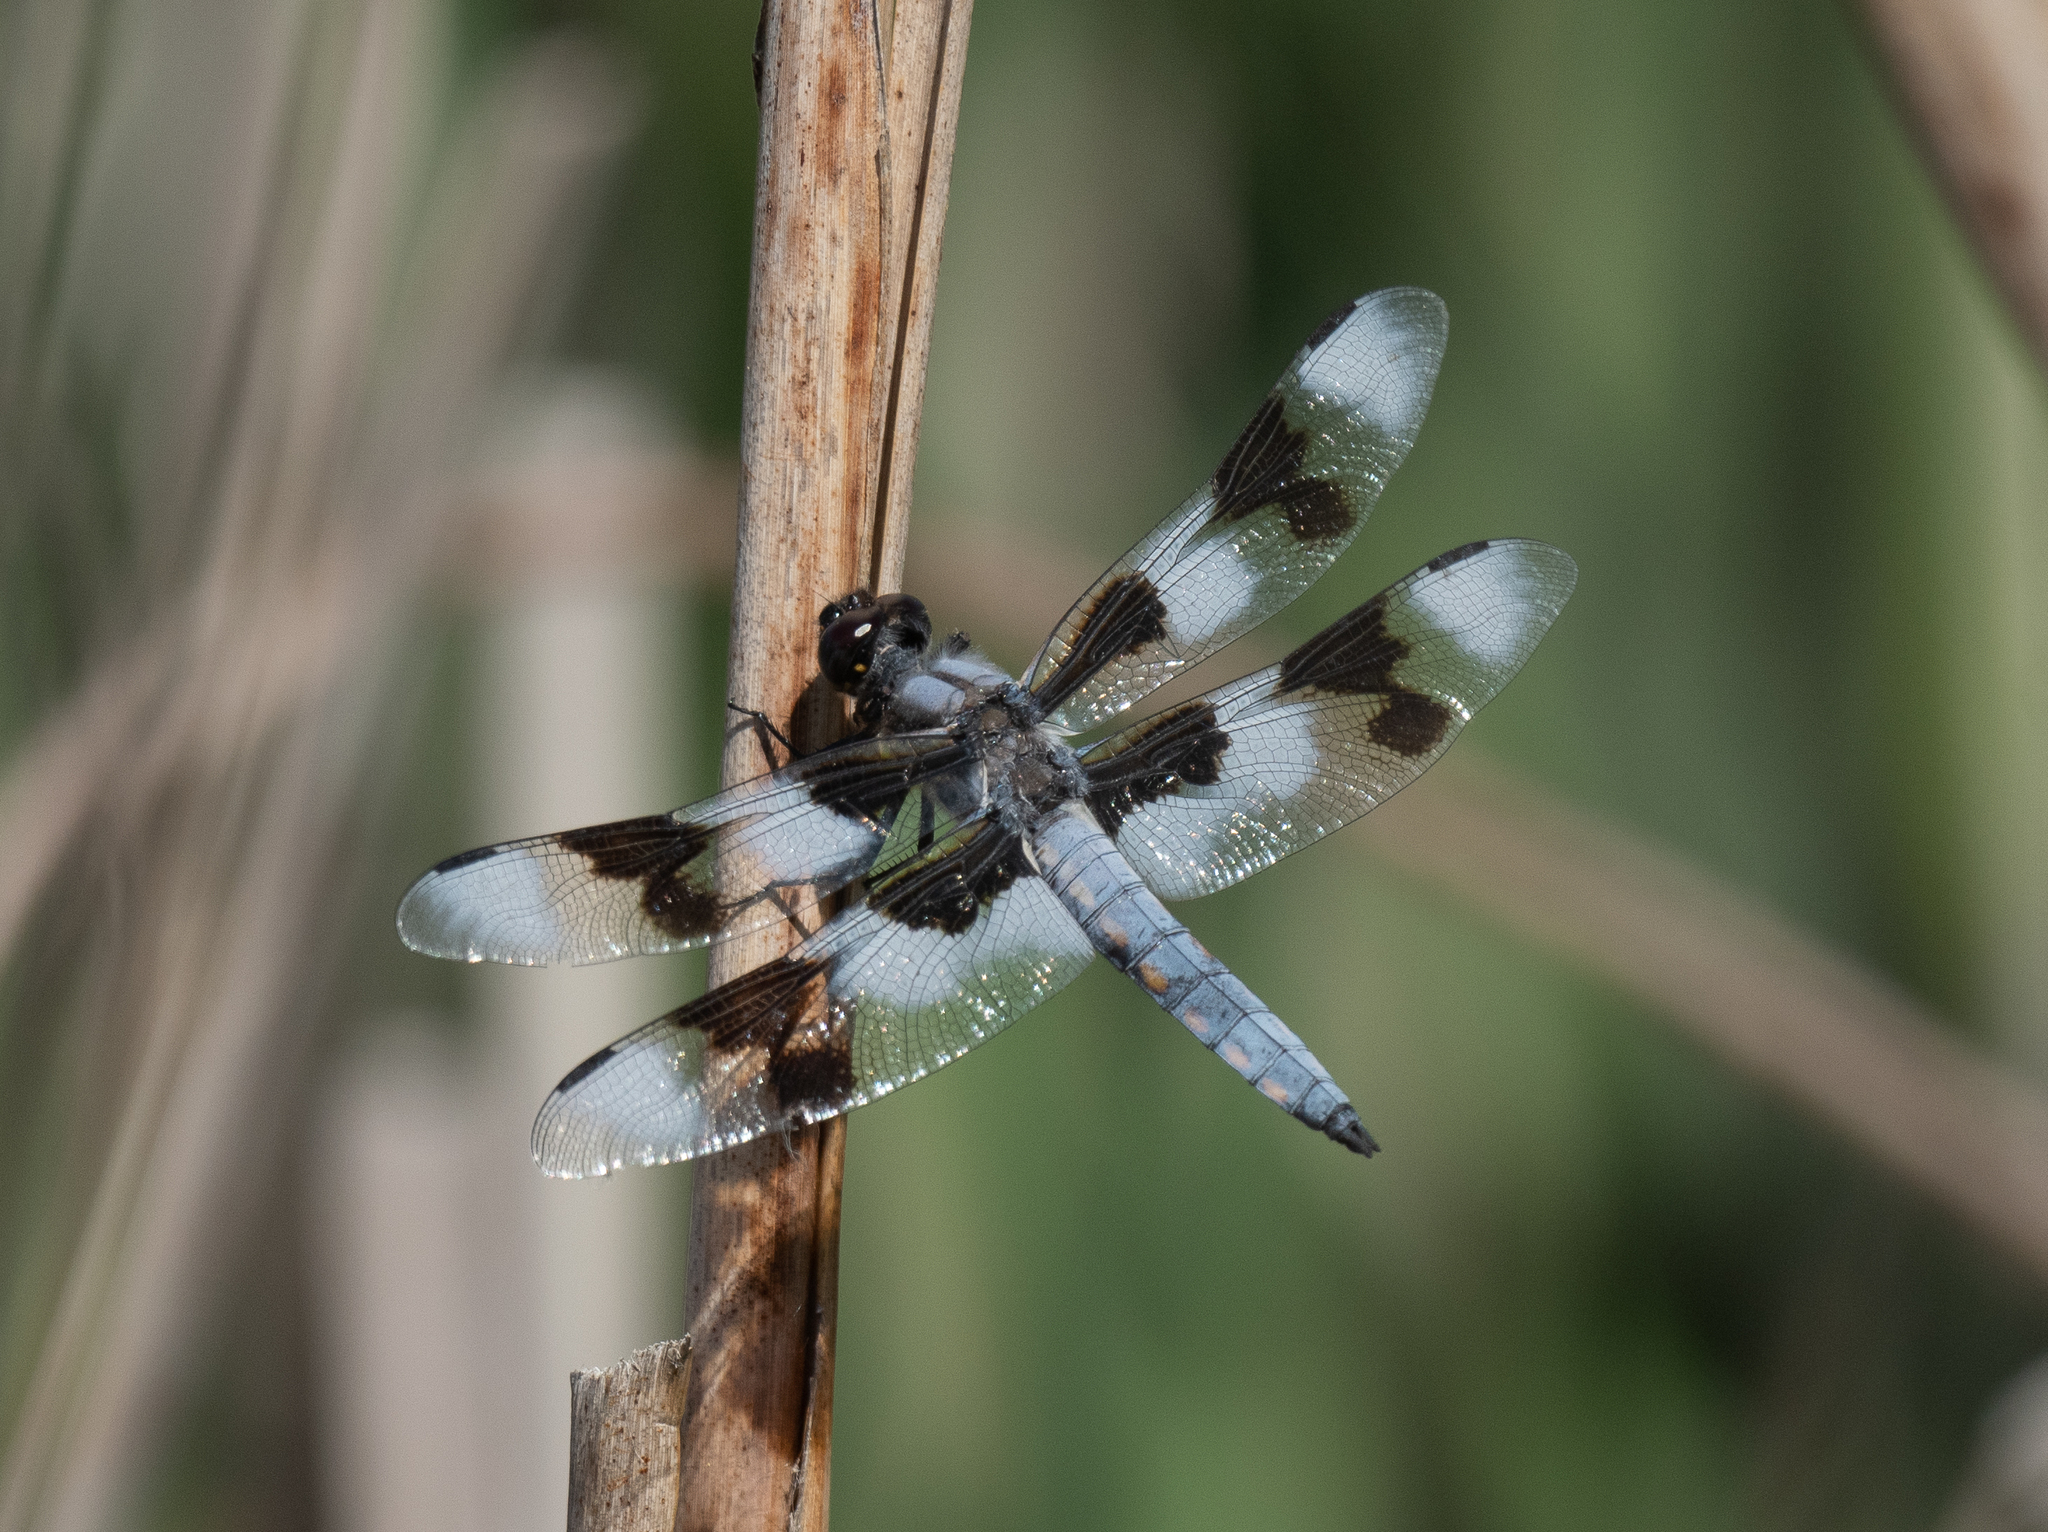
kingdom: Animalia
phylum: Arthropoda
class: Insecta
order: Odonata
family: Libellulidae
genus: Libellula
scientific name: Libellula forensis
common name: Eight-spotted skimmer
